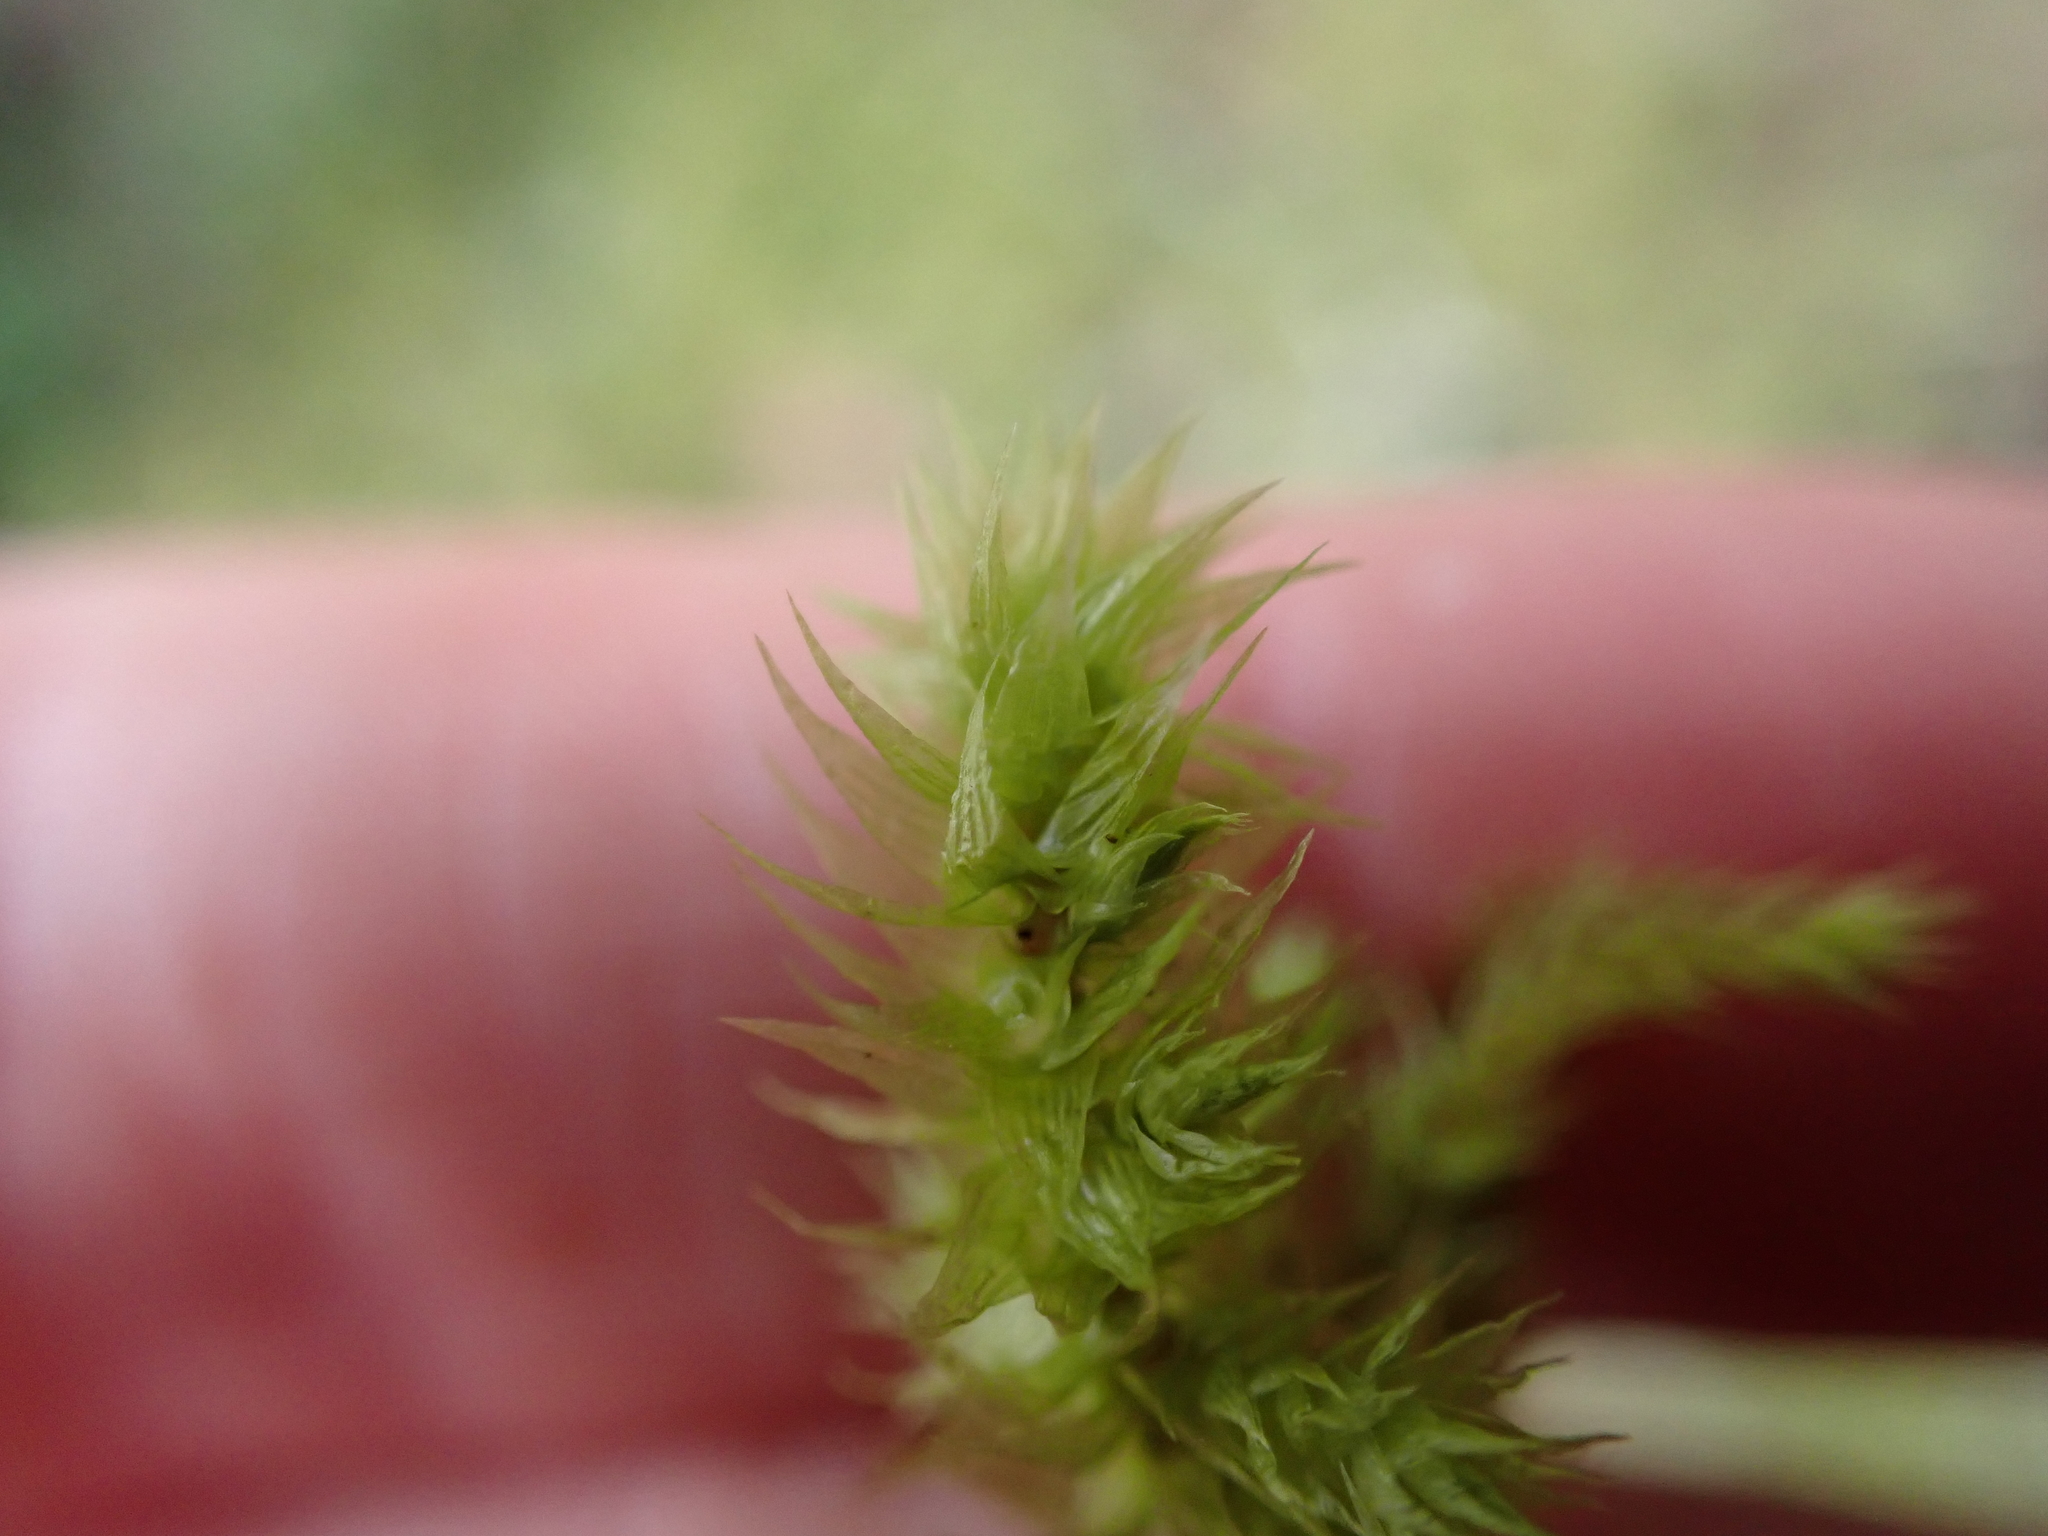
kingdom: Plantae
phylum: Bryophyta
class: Bryopsida
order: Hypnales
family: Hylocomiaceae
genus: Hylocomiadelphus
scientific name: Hylocomiadelphus triquetrus
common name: Rough goose neck moss
